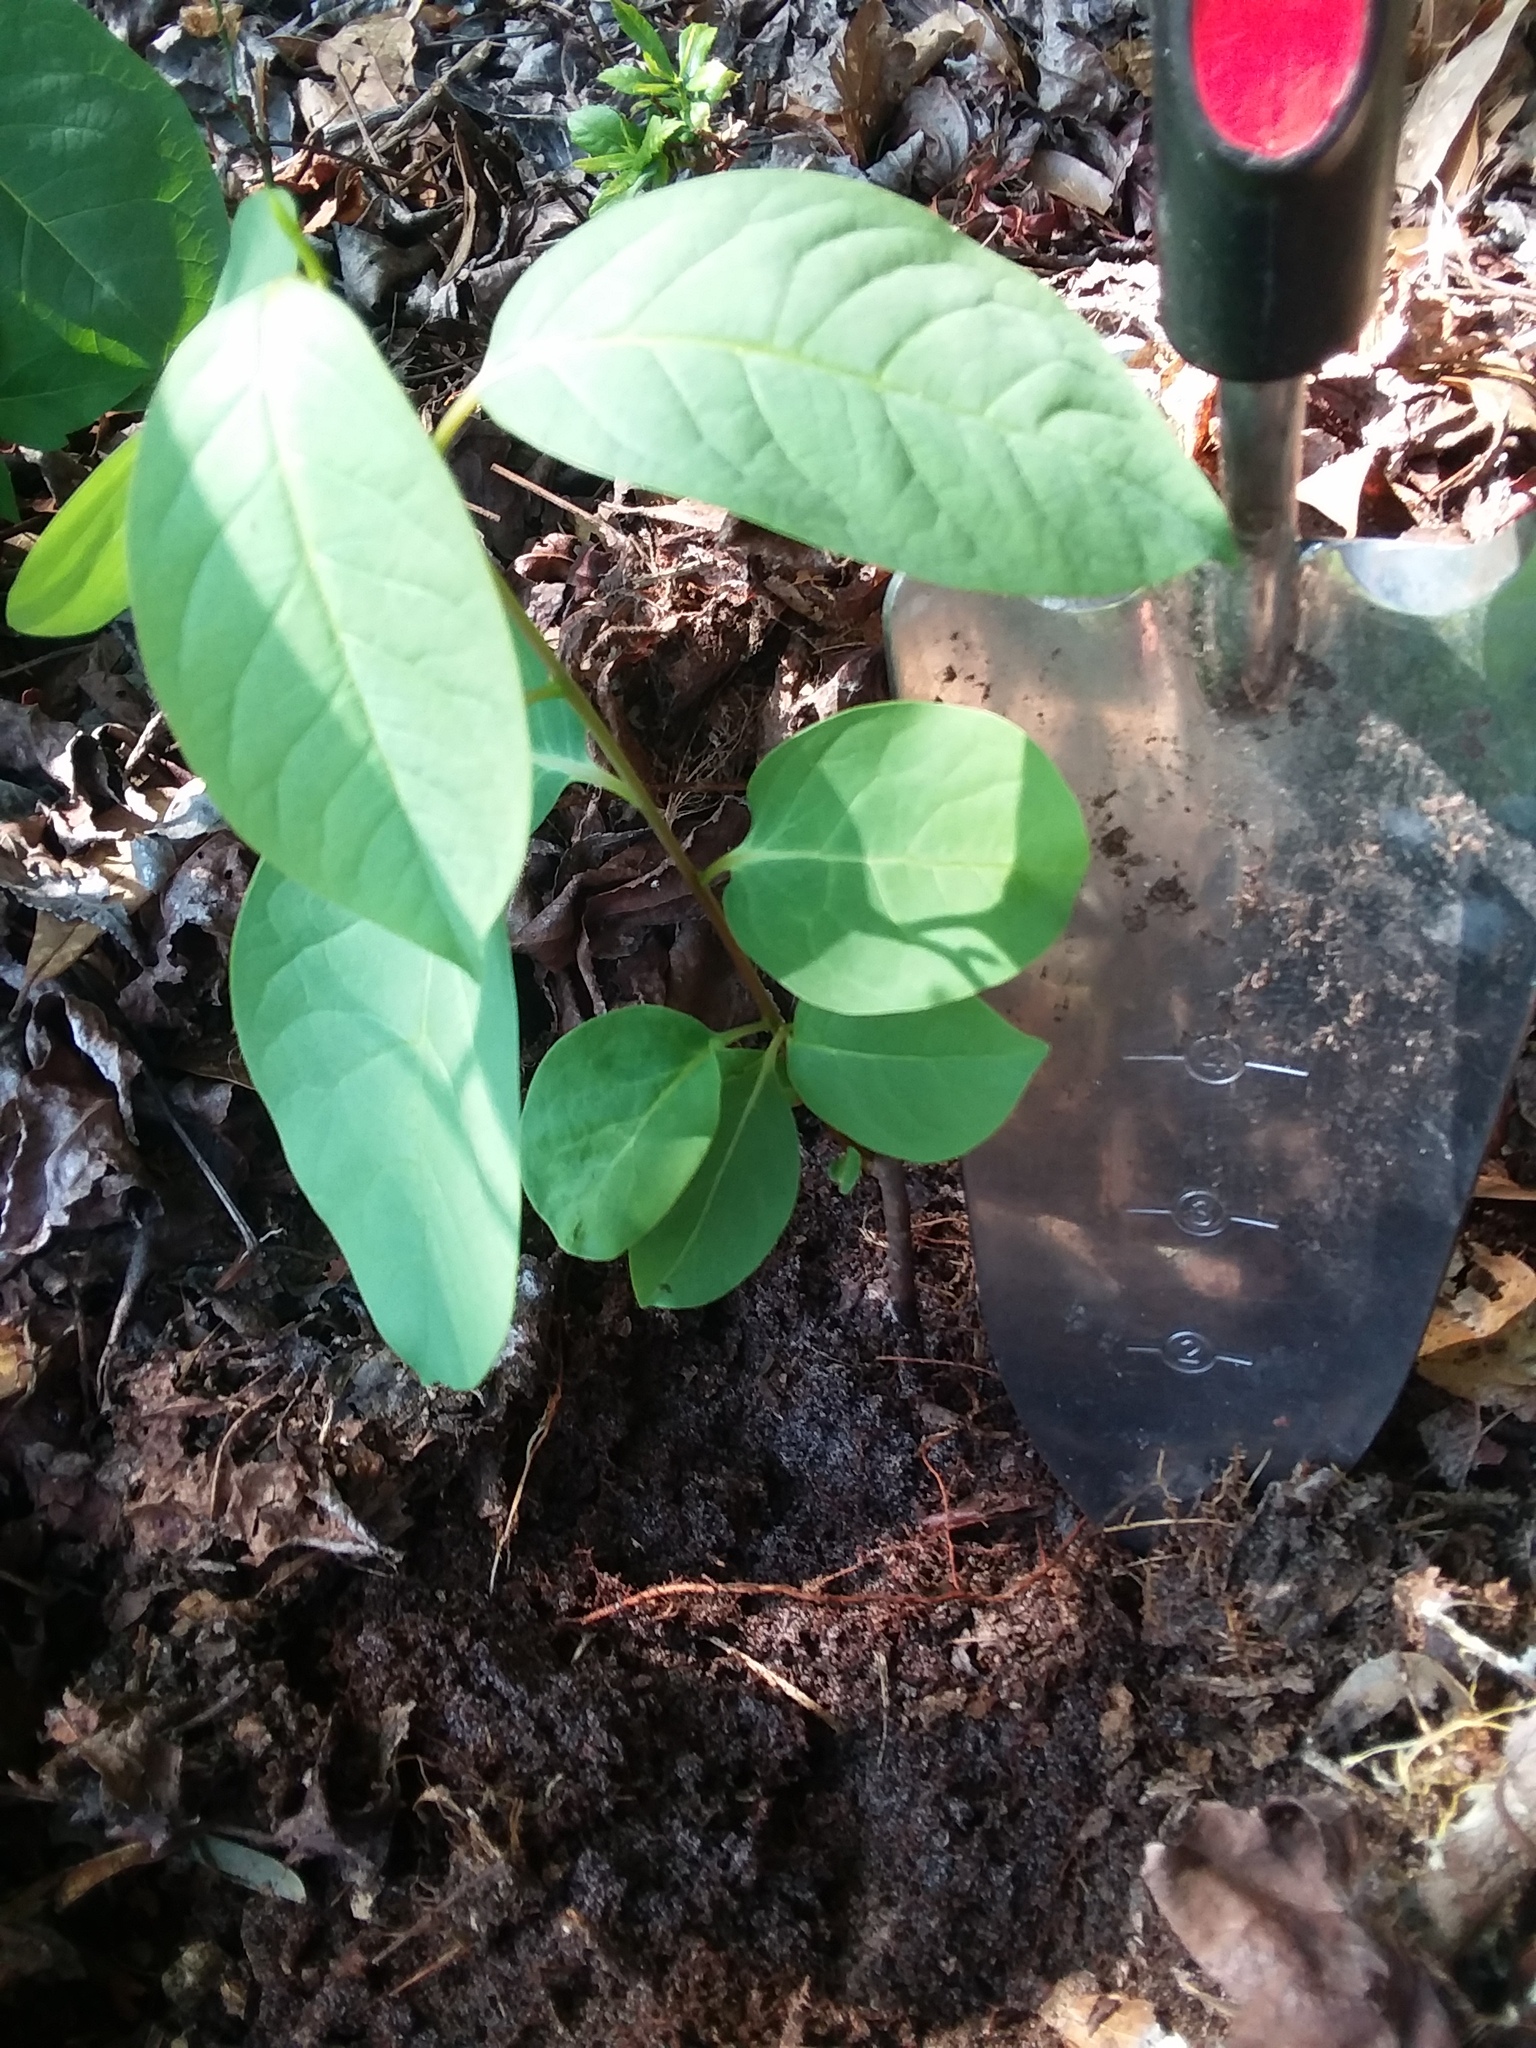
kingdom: Plantae
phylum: Tracheophyta
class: Magnoliopsida
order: Ericales
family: Ebenaceae
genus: Diospyros
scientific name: Diospyros virginiana
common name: Persimmon
